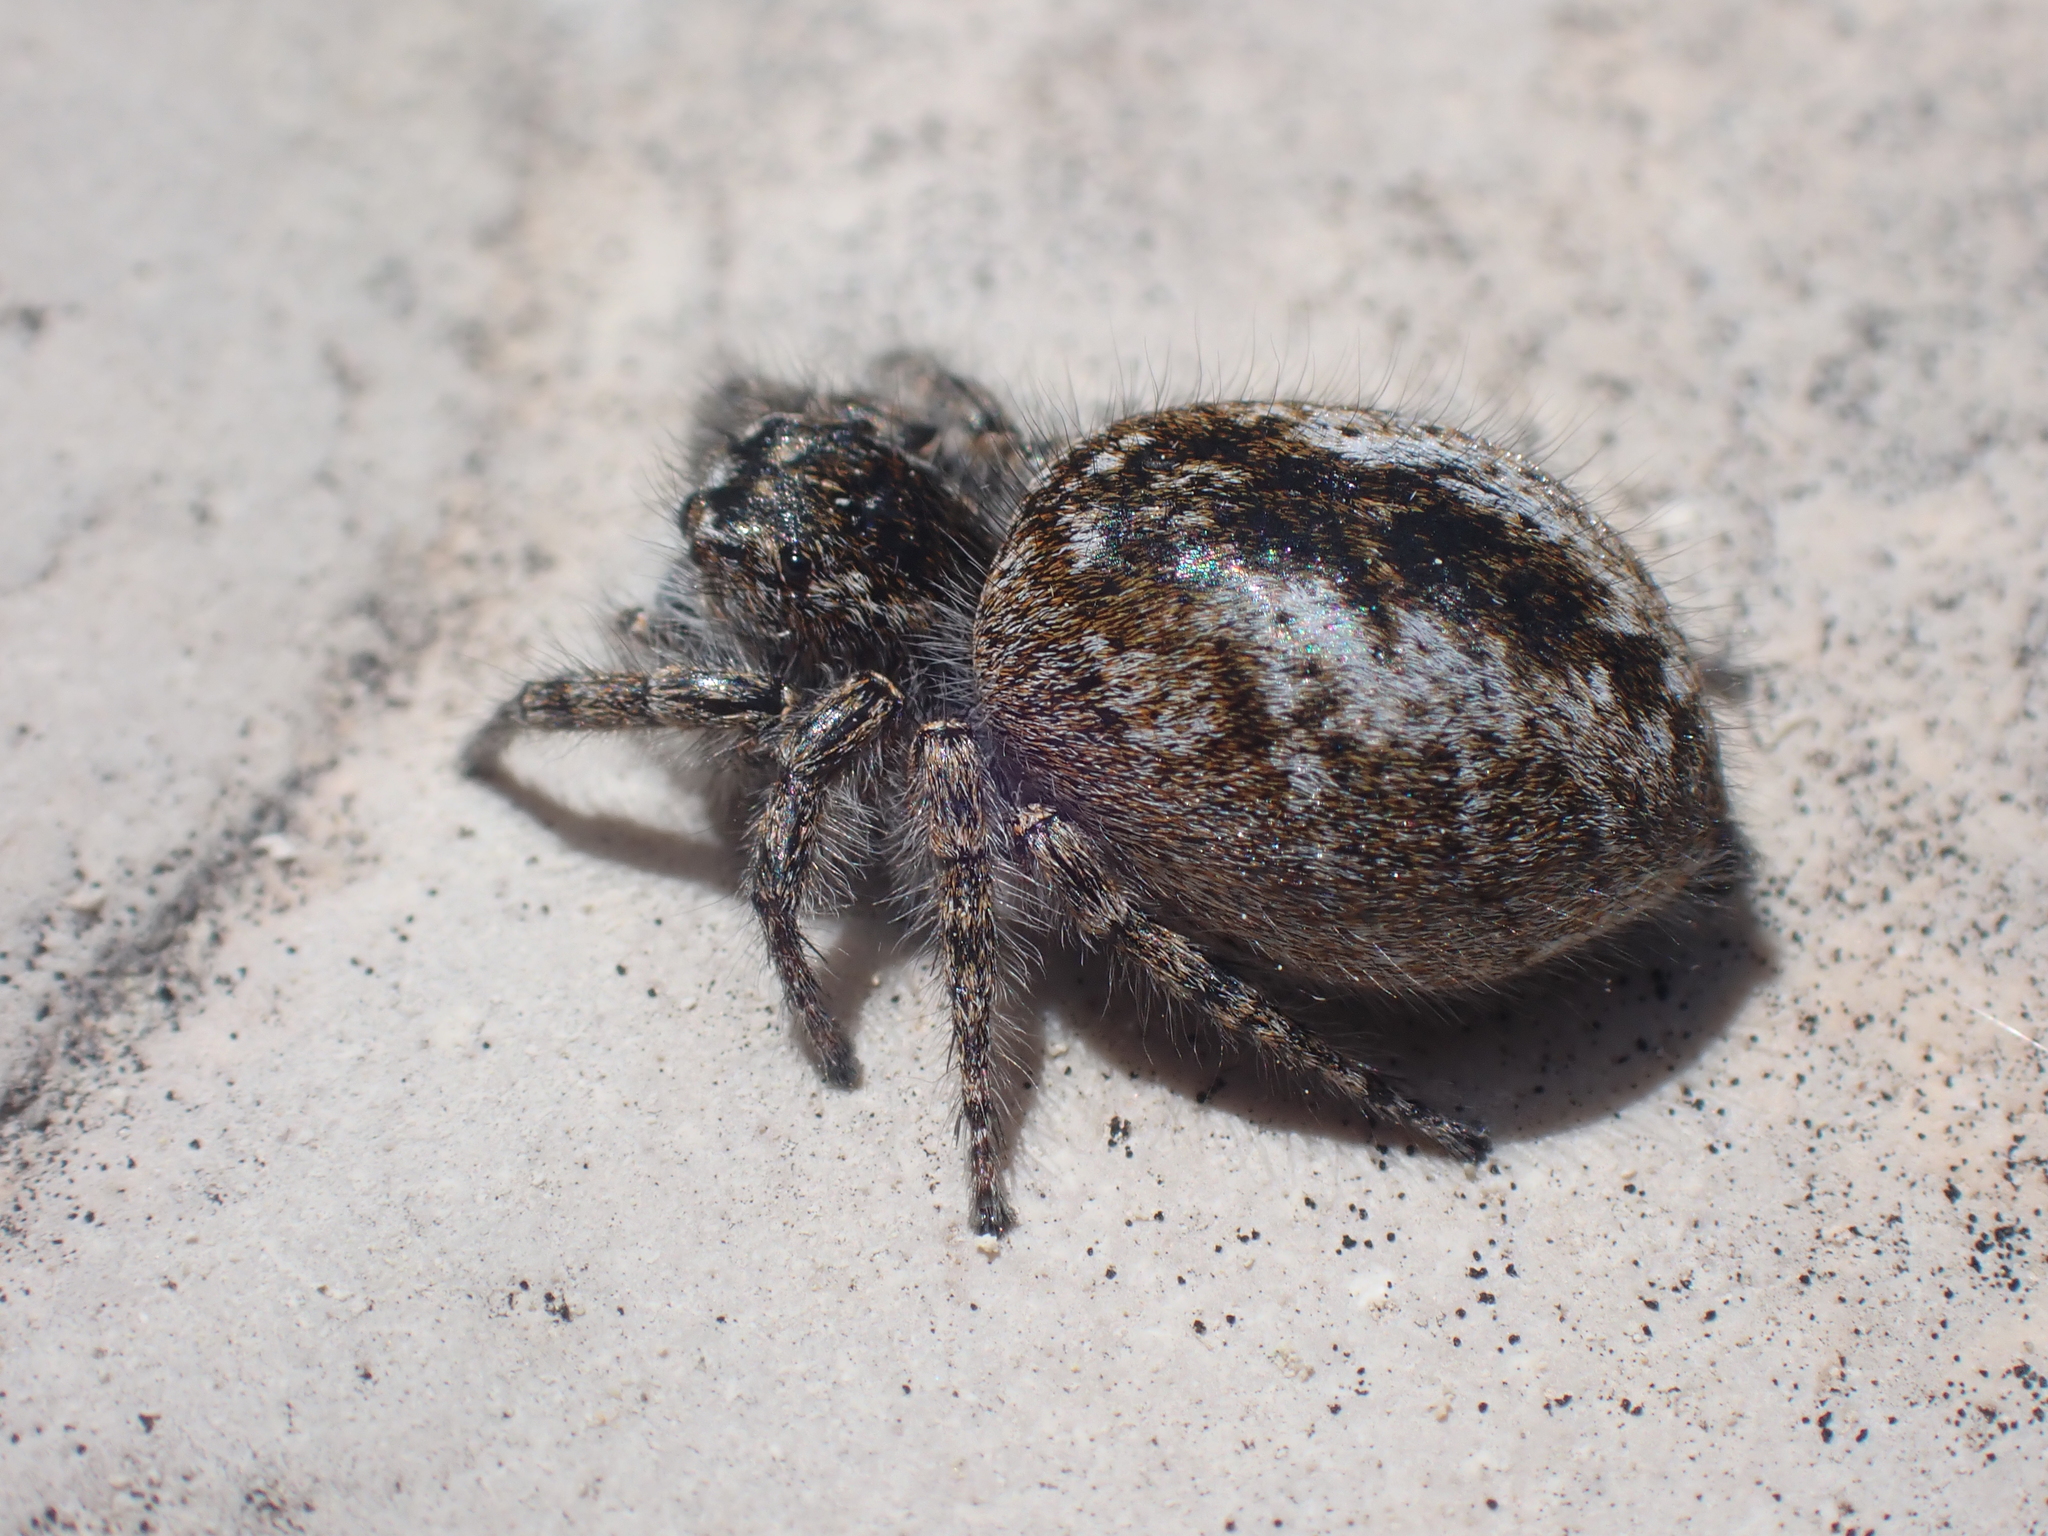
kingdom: Animalia
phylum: Arthropoda
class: Arachnida
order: Araneae
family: Salticidae
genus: Philaeus
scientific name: Philaeus chrysops
